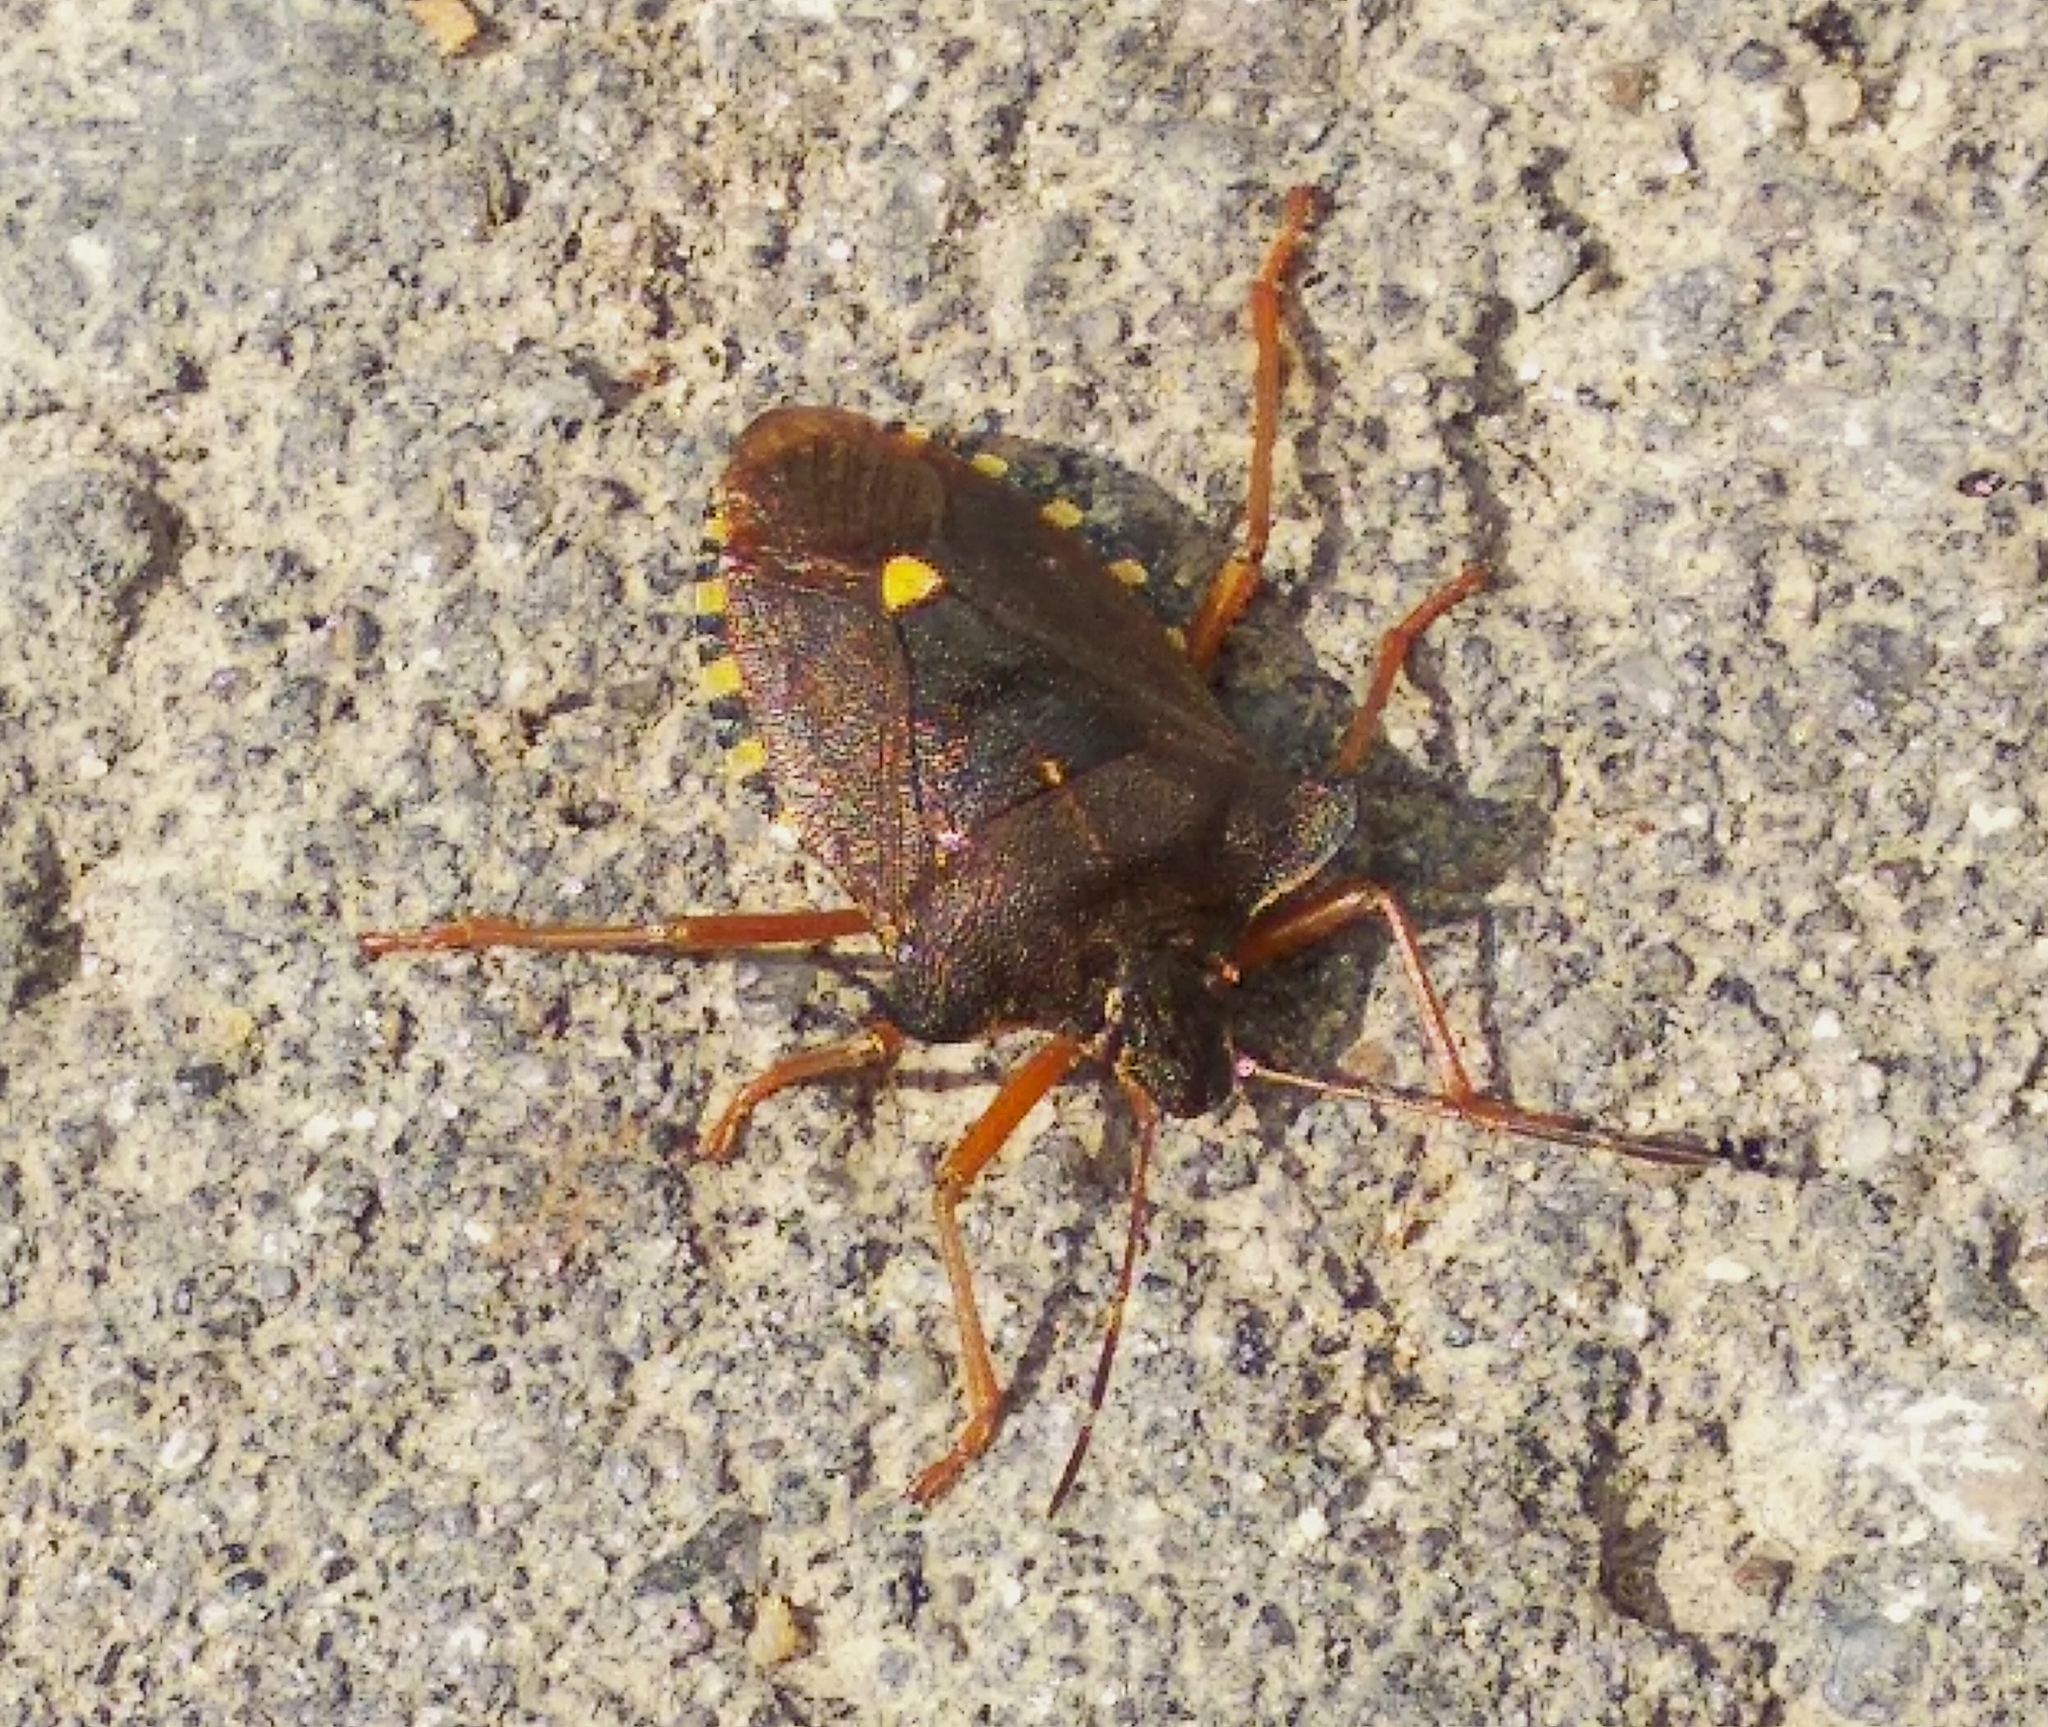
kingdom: Animalia
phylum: Arthropoda
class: Insecta
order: Hemiptera
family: Pentatomidae
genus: Pentatoma
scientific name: Pentatoma rufipes
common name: Forest bug
